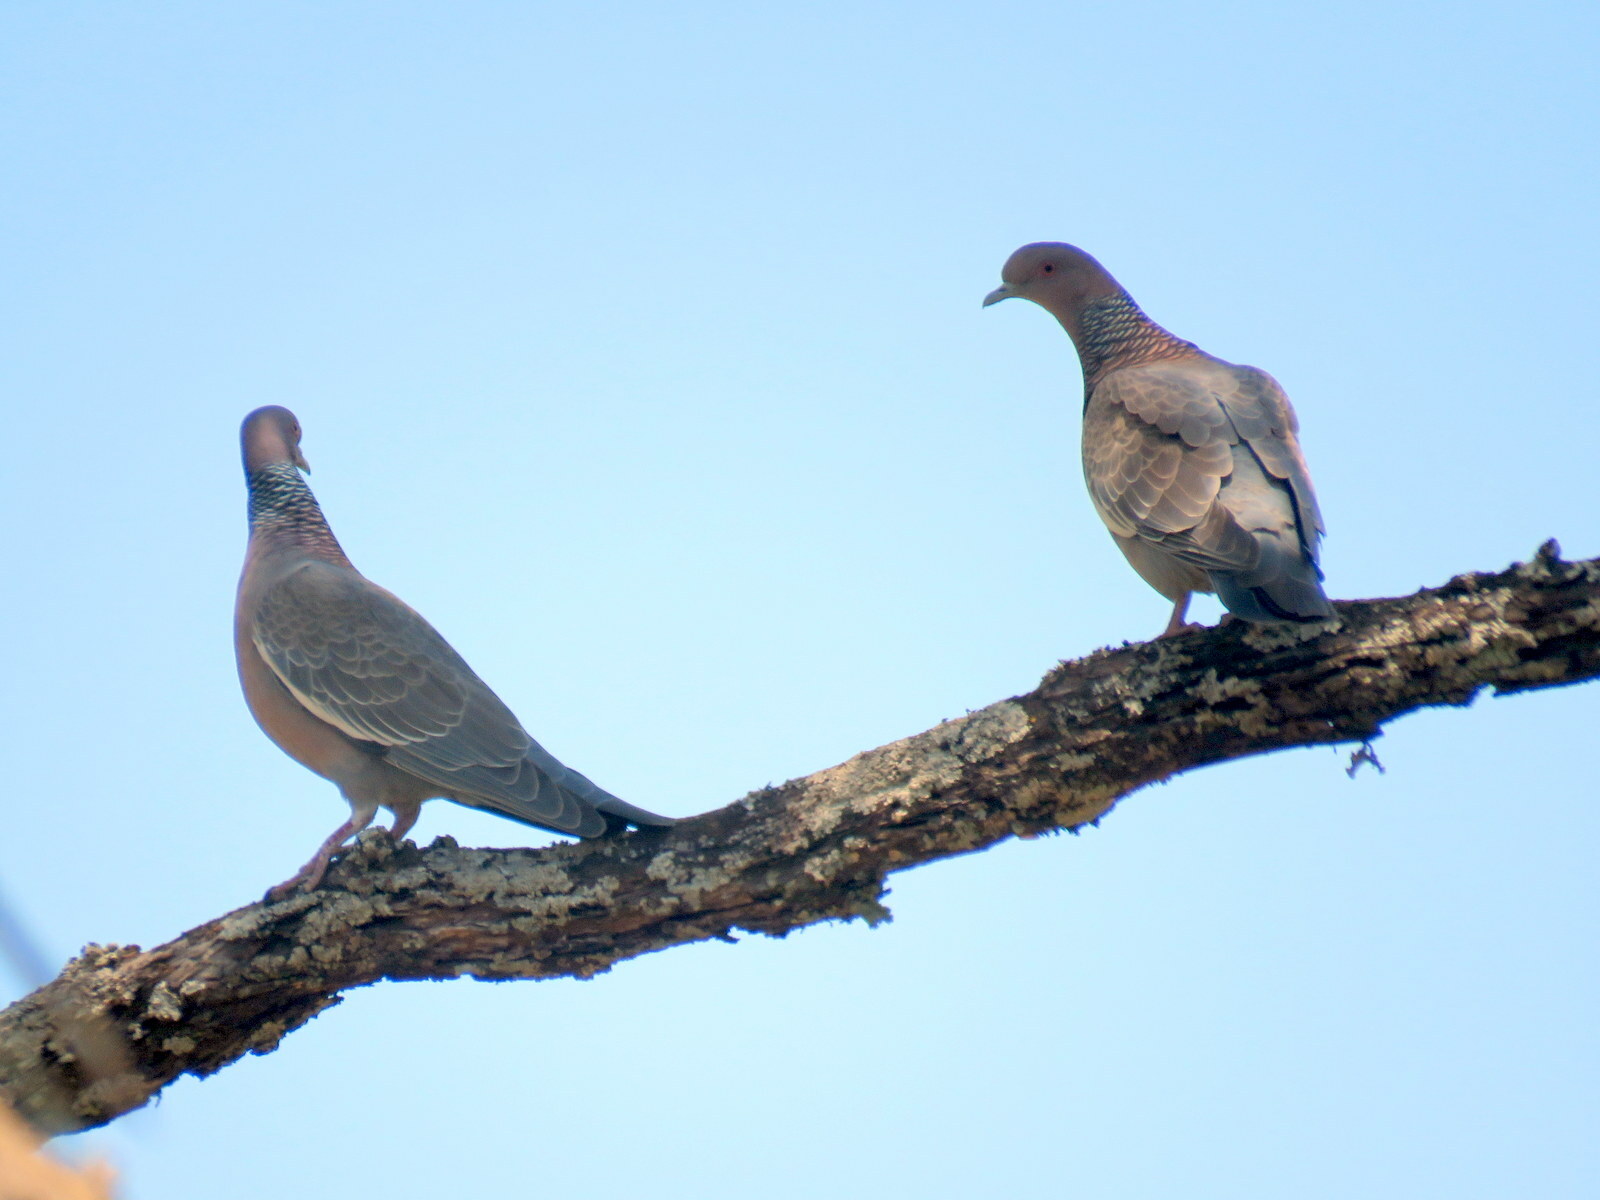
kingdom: Animalia
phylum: Chordata
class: Aves
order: Columbiformes
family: Columbidae
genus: Patagioenas
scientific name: Patagioenas picazuro
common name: Picazuro pigeon
